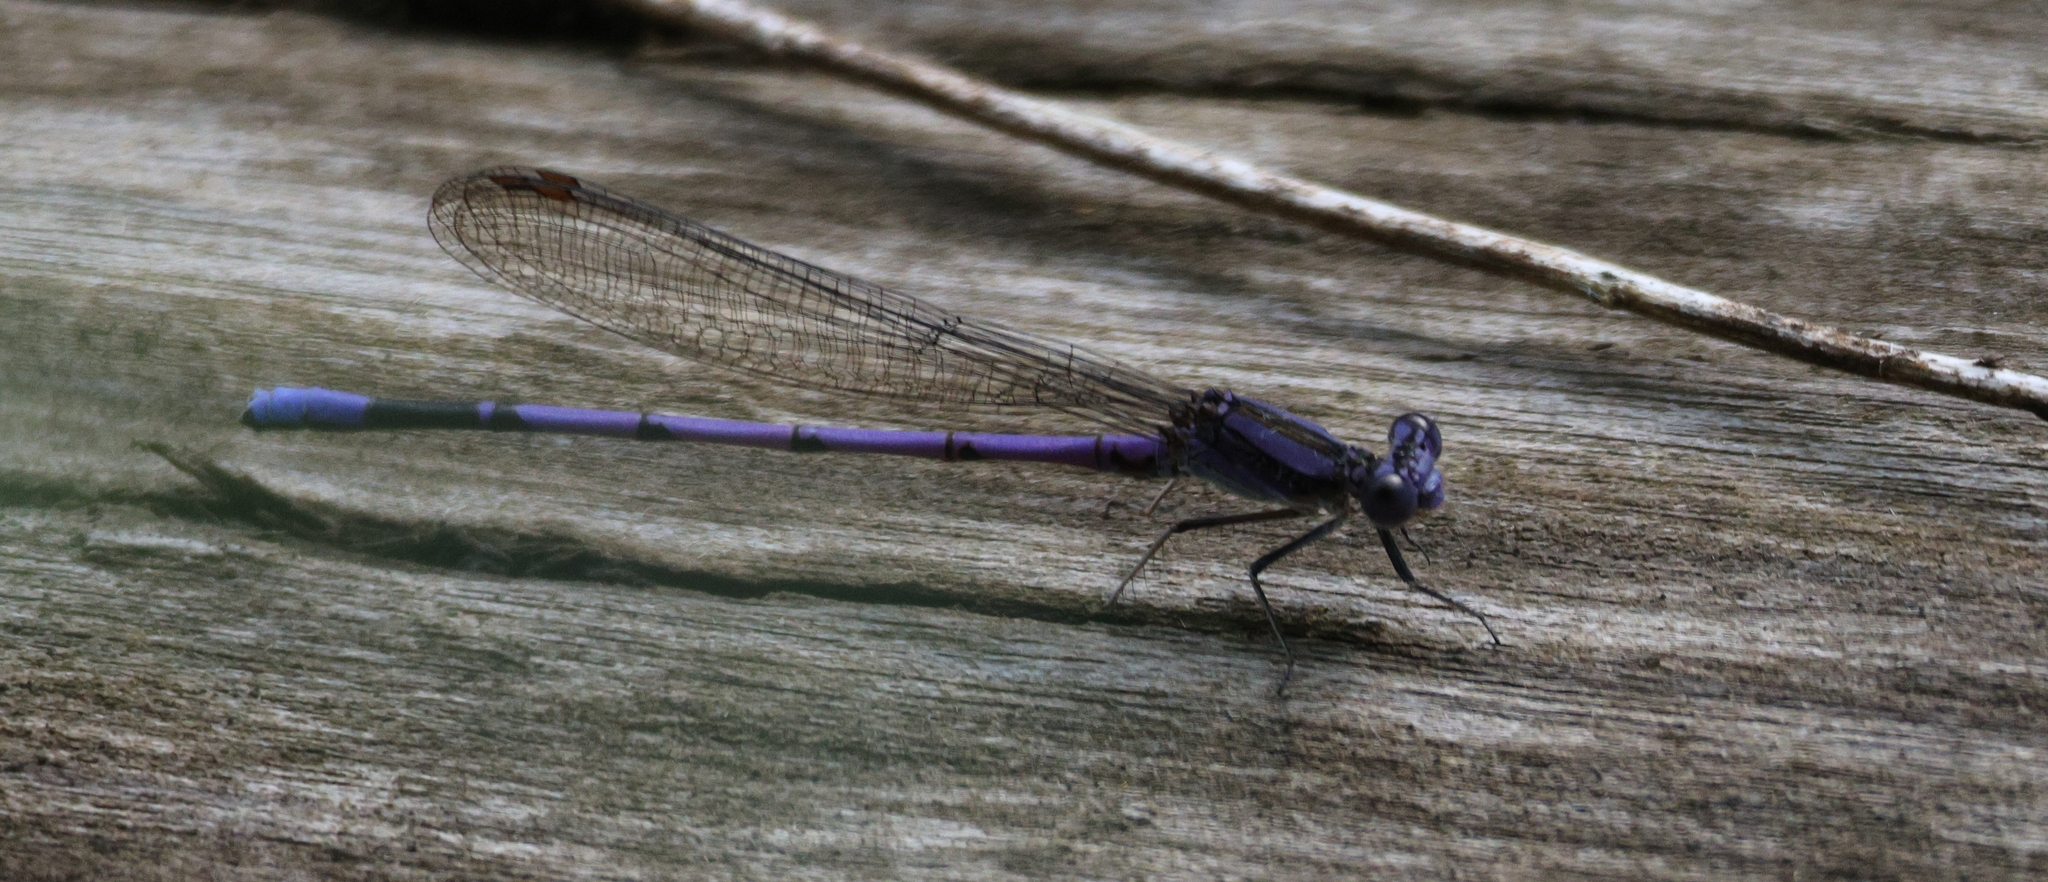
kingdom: Animalia
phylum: Arthropoda
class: Insecta
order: Odonata
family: Coenagrionidae
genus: Argia
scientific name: Argia fumipennis
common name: Variable dancer
